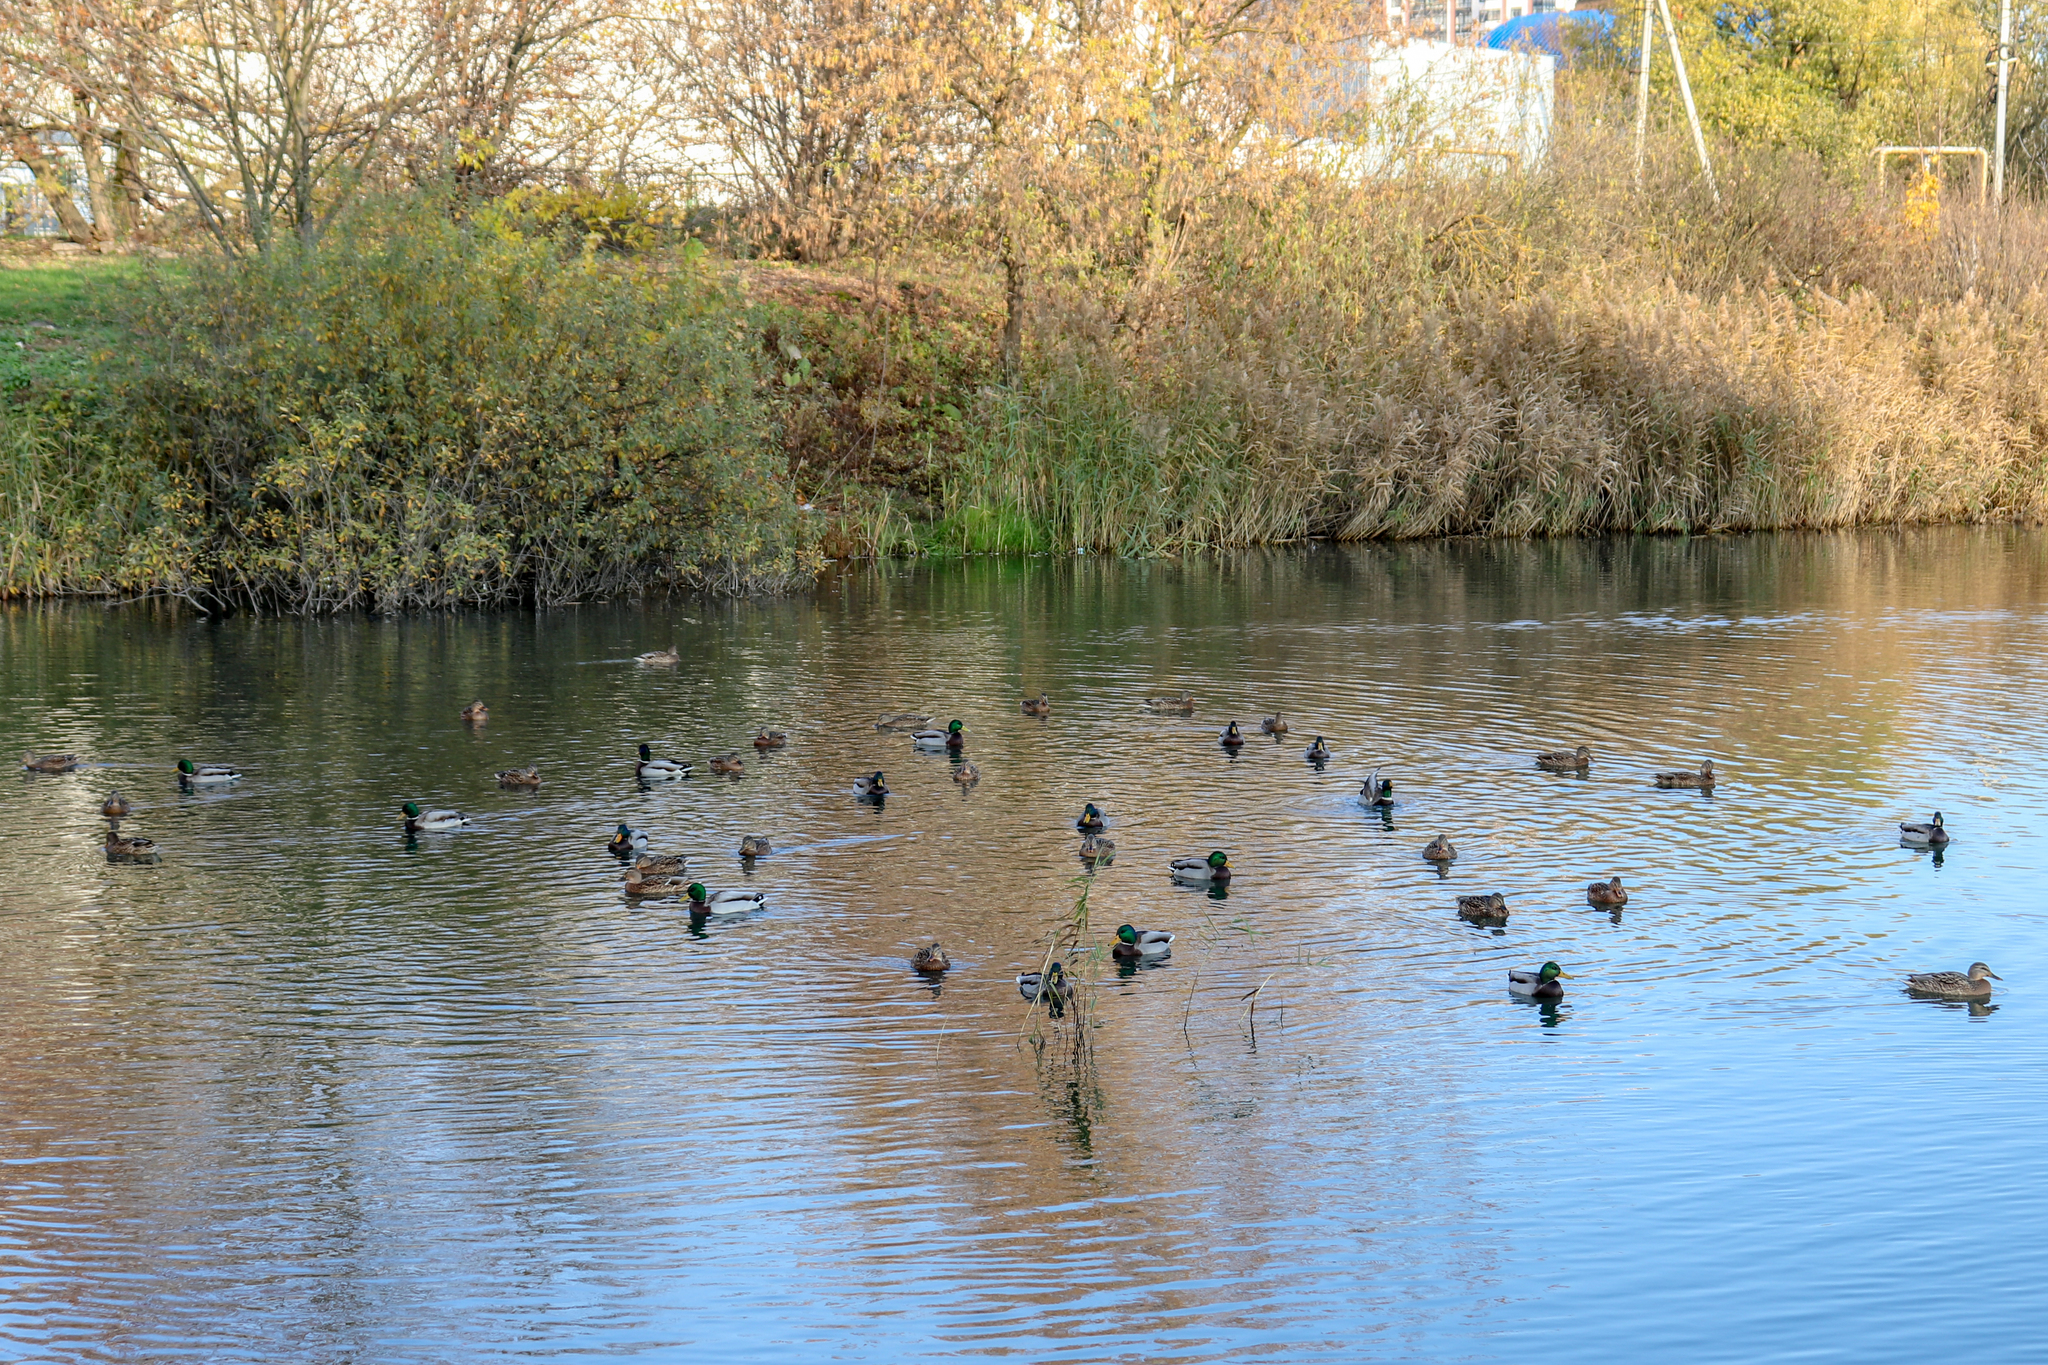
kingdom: Animalia
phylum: Chordata
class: Aves
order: Anseriformes
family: Anatidae
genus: Anas
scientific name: Anas platyrhynchos
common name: Mallard
